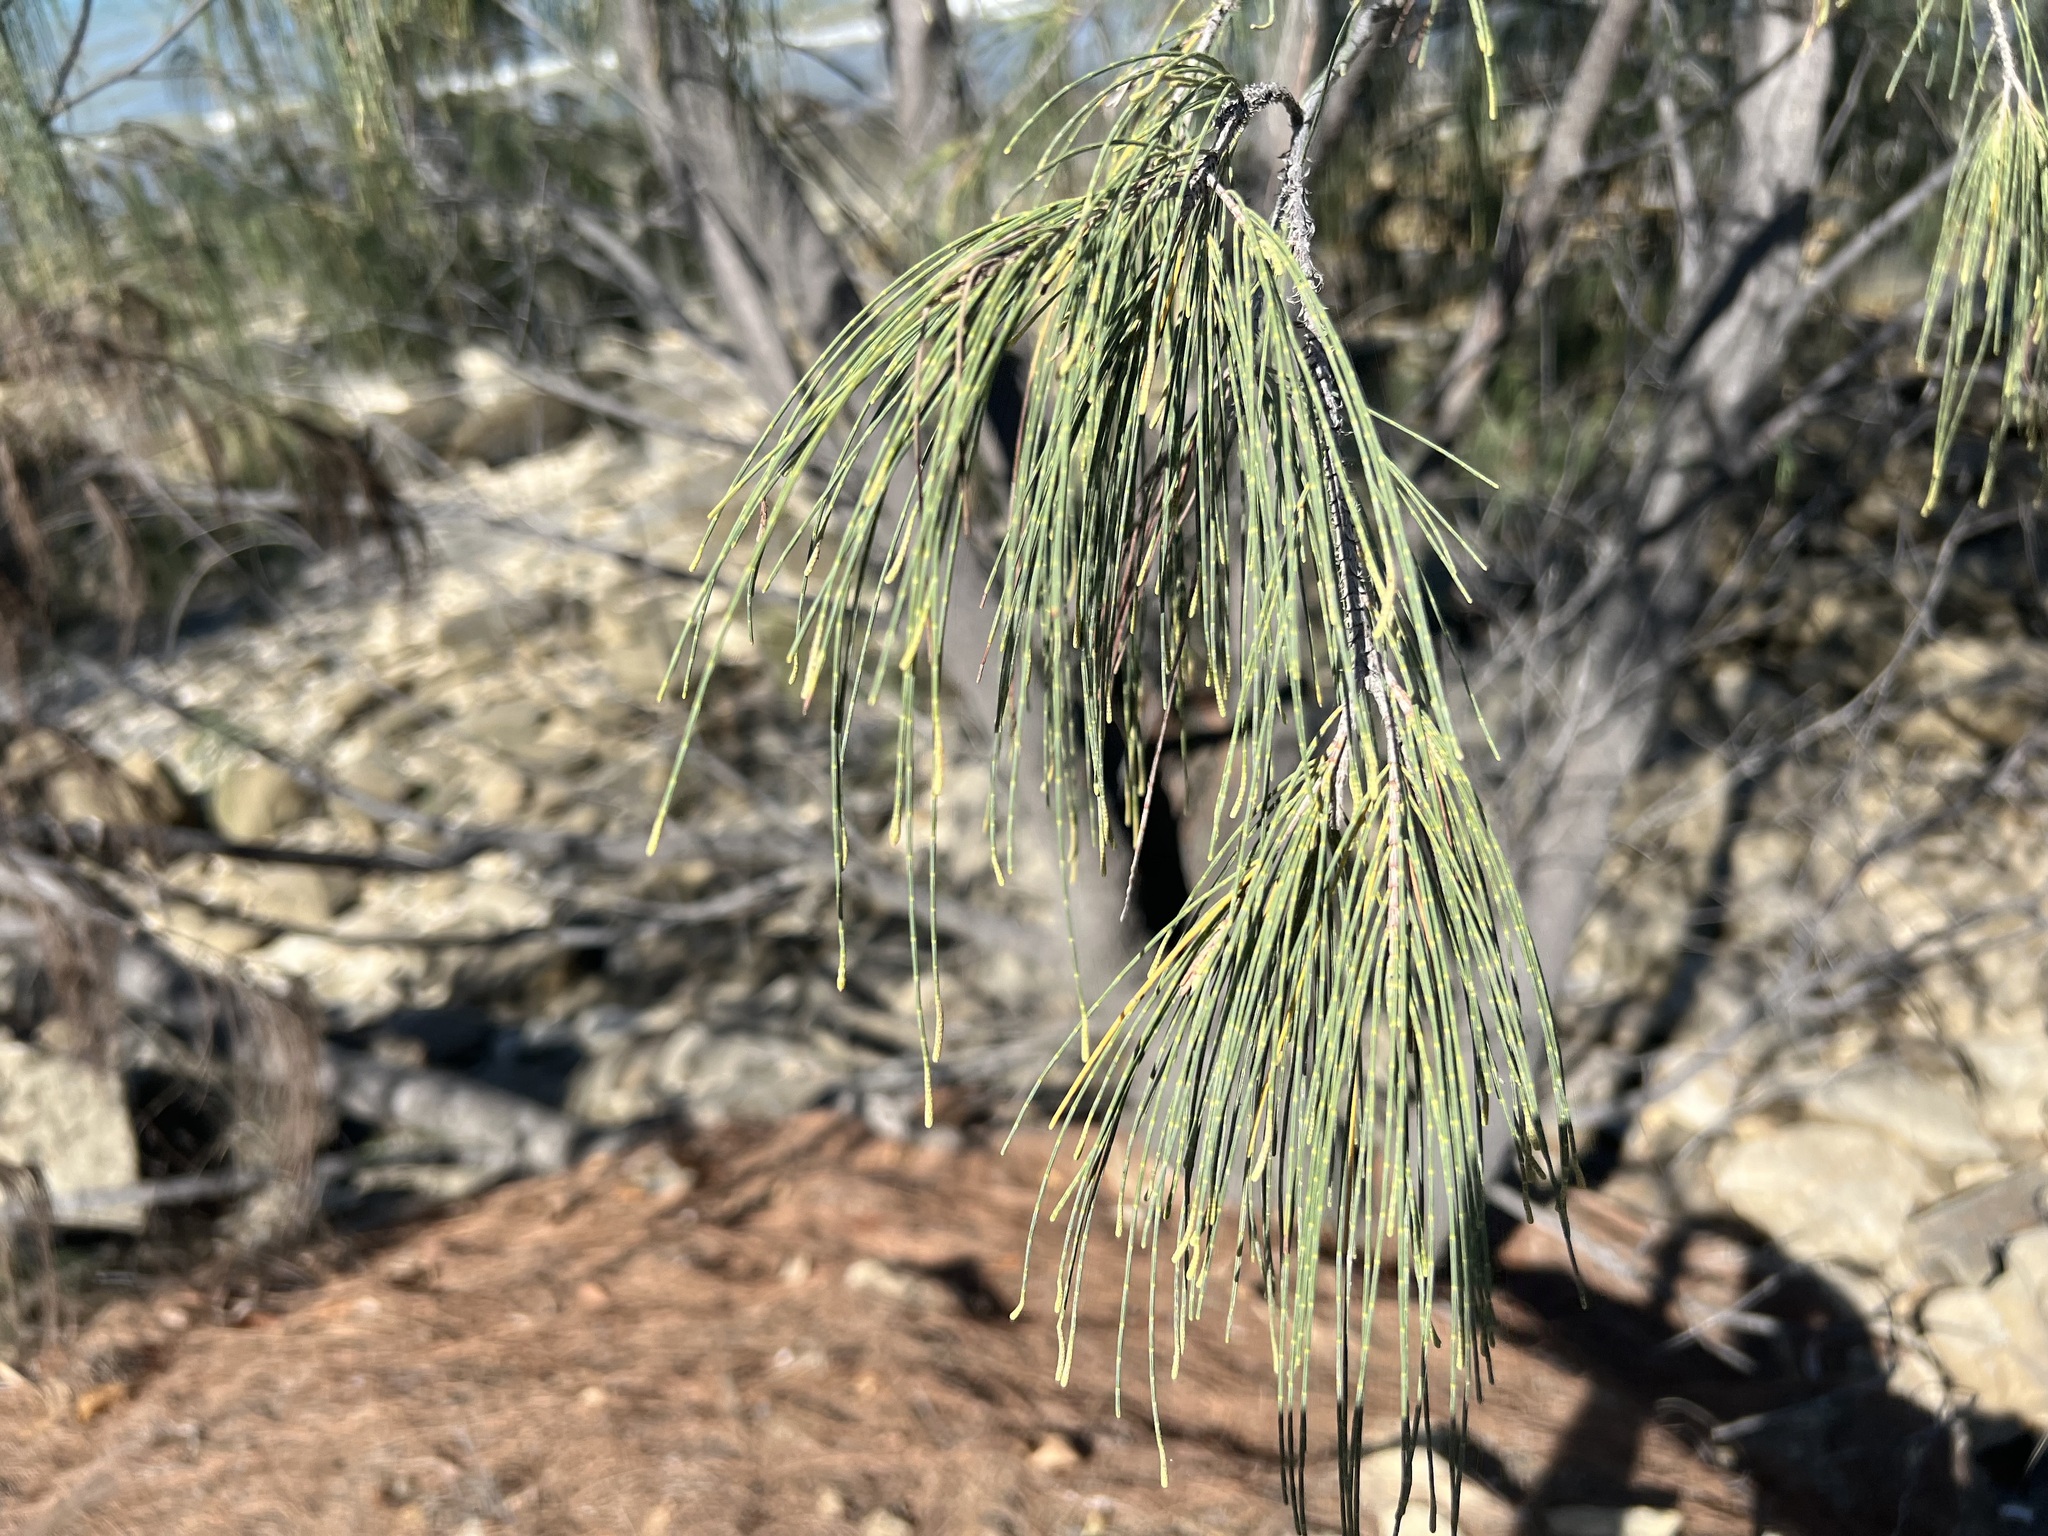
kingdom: Plantae
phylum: Tracheophyta
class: Magnoliopsida
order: Fagales
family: Casuarinaceae
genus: Allocasuarina
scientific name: Allocasuarina littoralis
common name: Black she-oak
